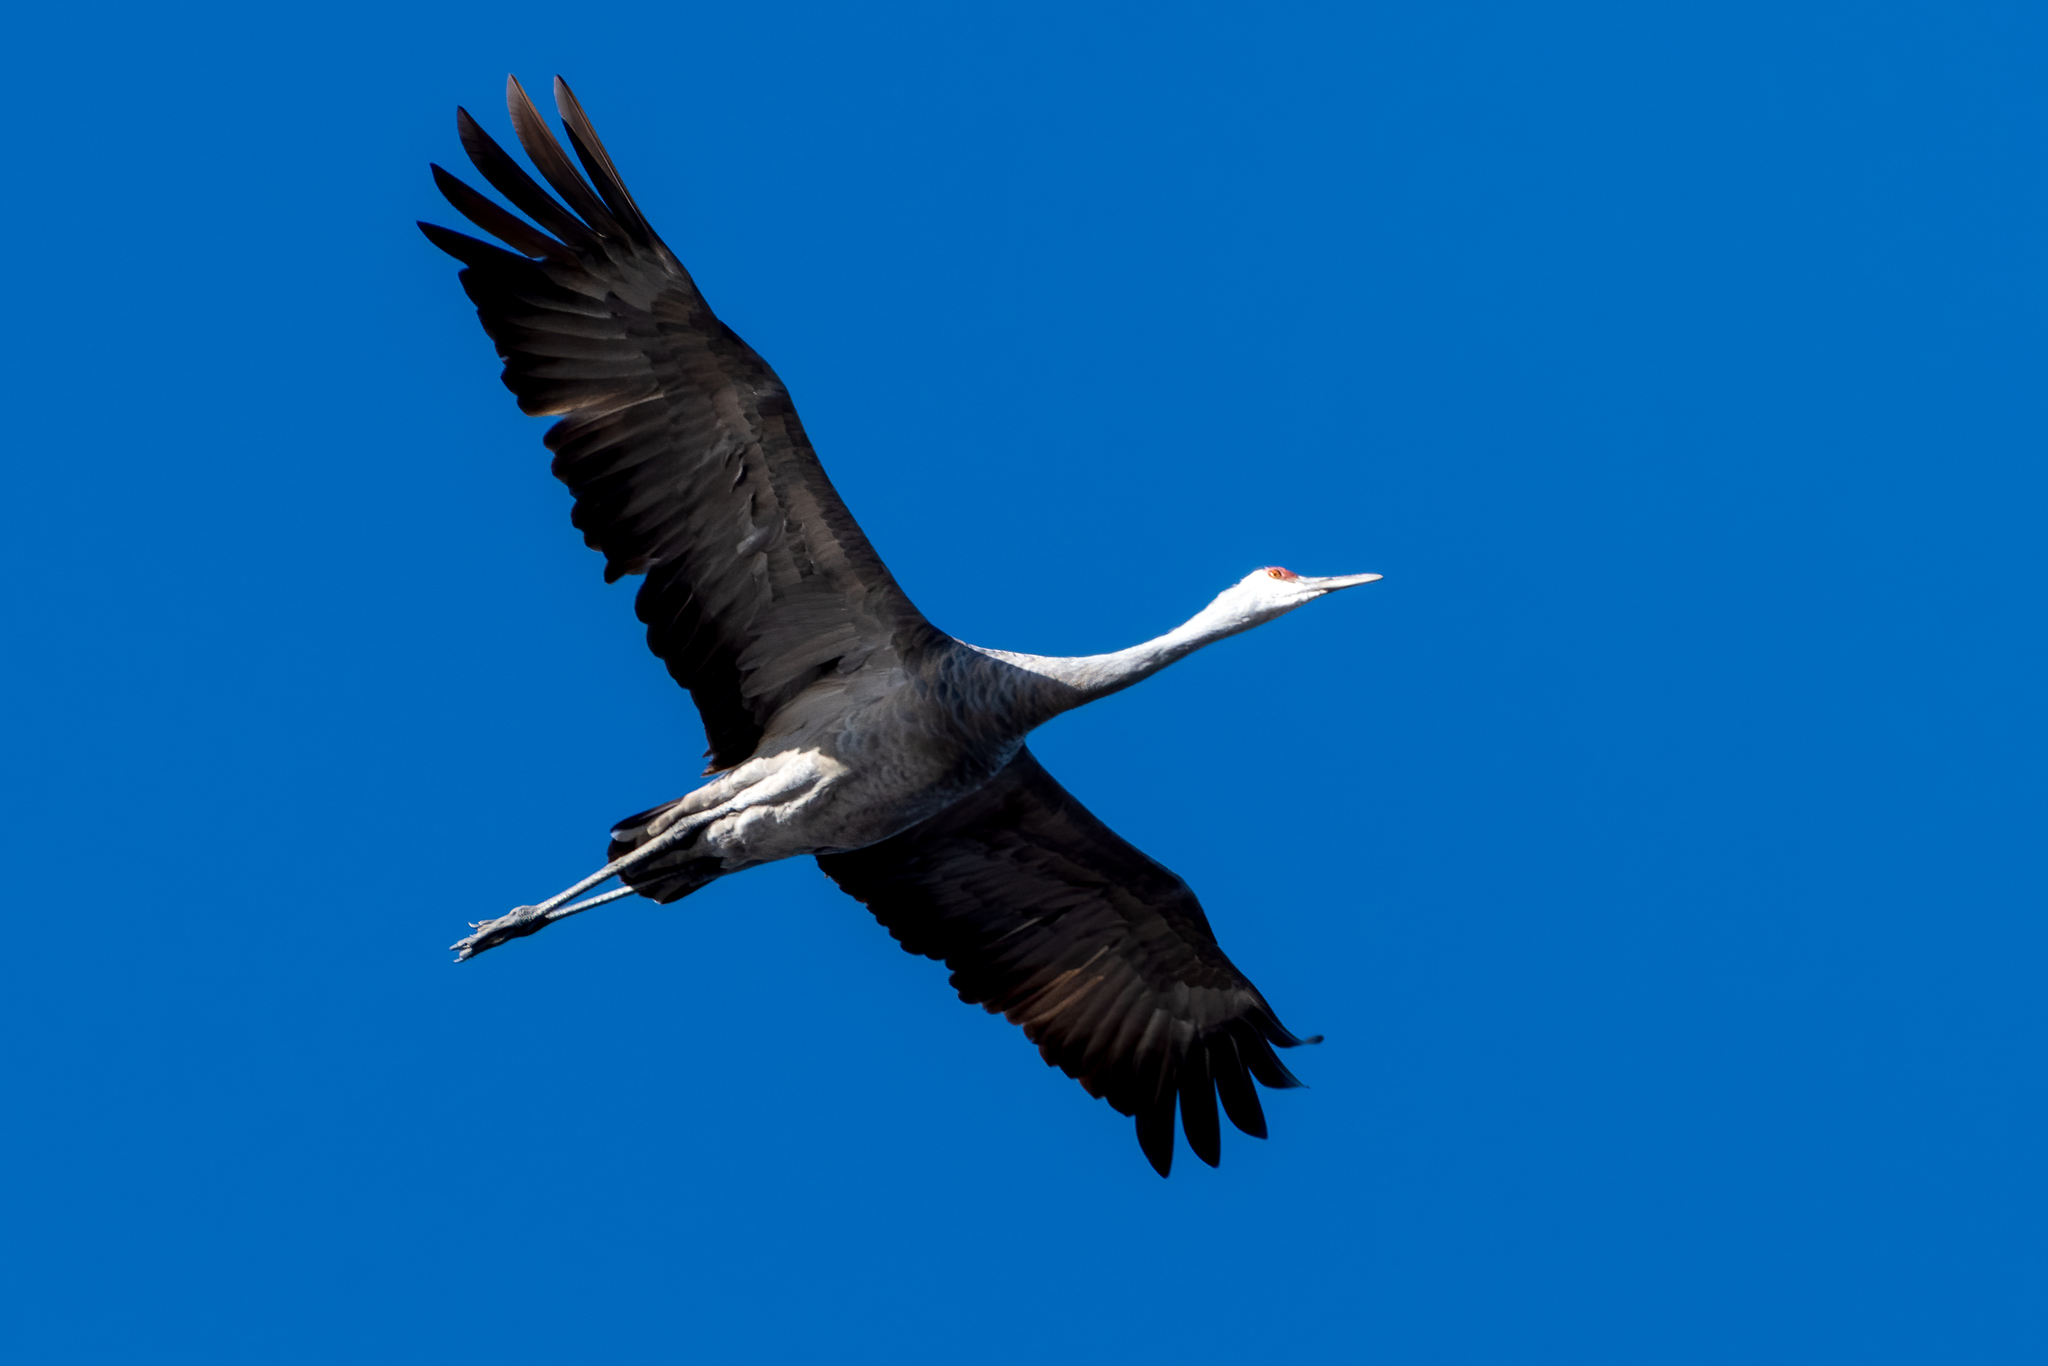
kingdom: Animalia
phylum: Chordata
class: Aves
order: Gruiformes
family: Gruidae
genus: Grus
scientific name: Grus canadensis
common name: Sandhill crane
